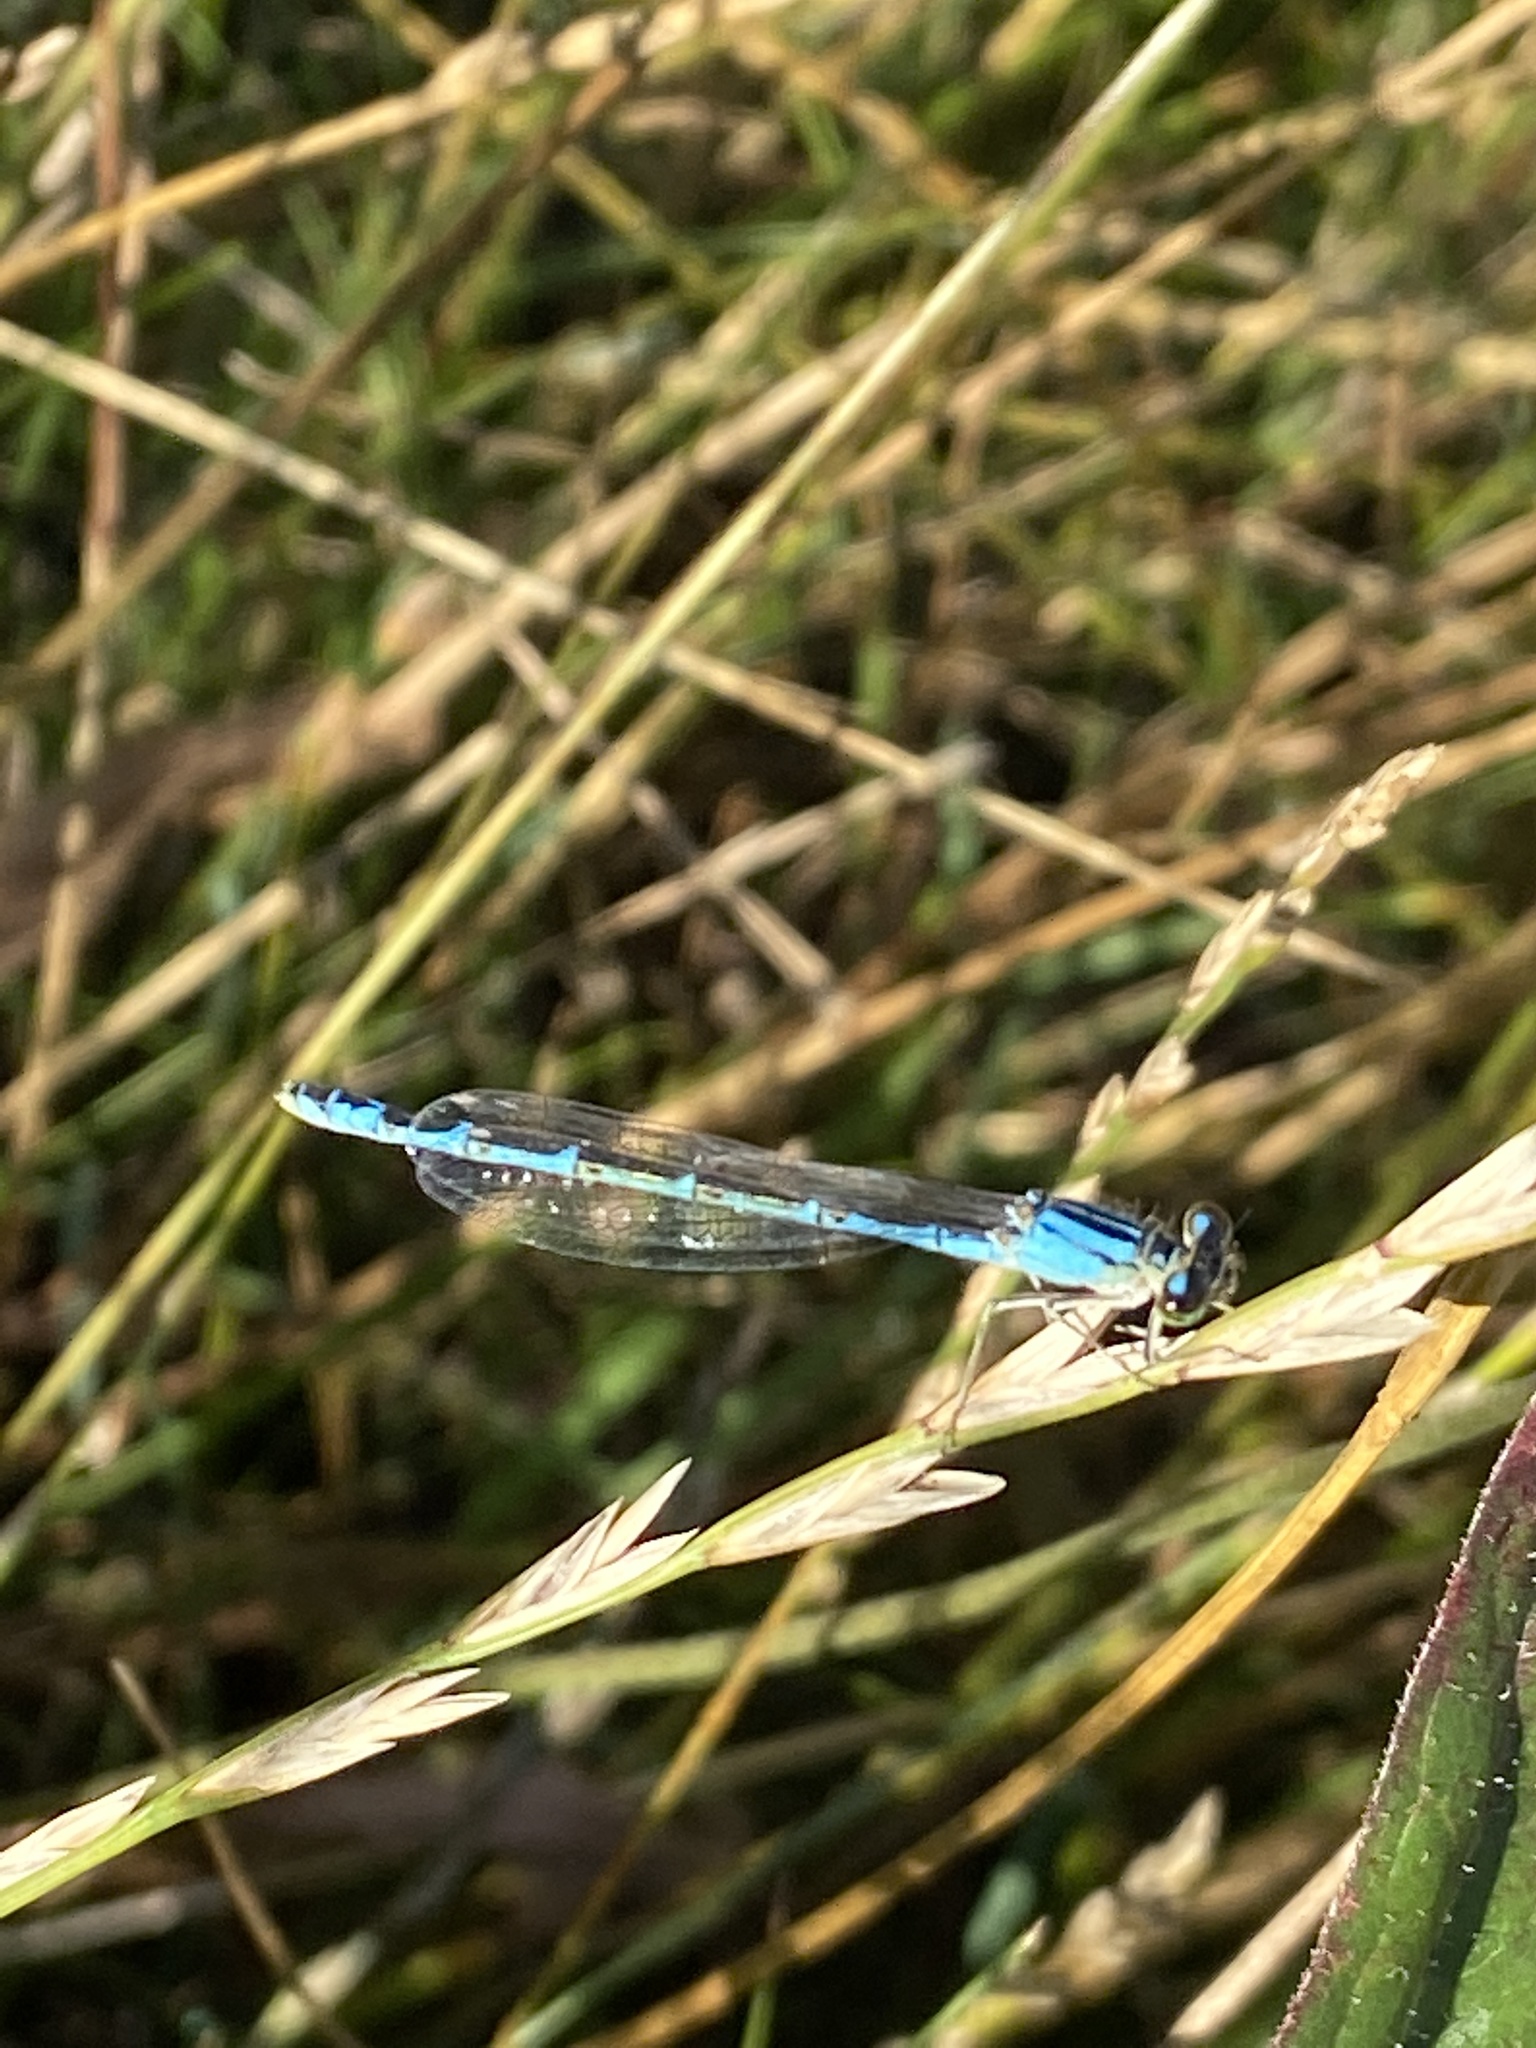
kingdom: Animalia
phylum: Arthropoda
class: Insecta
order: Odonata
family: Coenagrionidae
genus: Enallagma
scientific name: Enallagma cyathigerum
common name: Common blue damselfly
